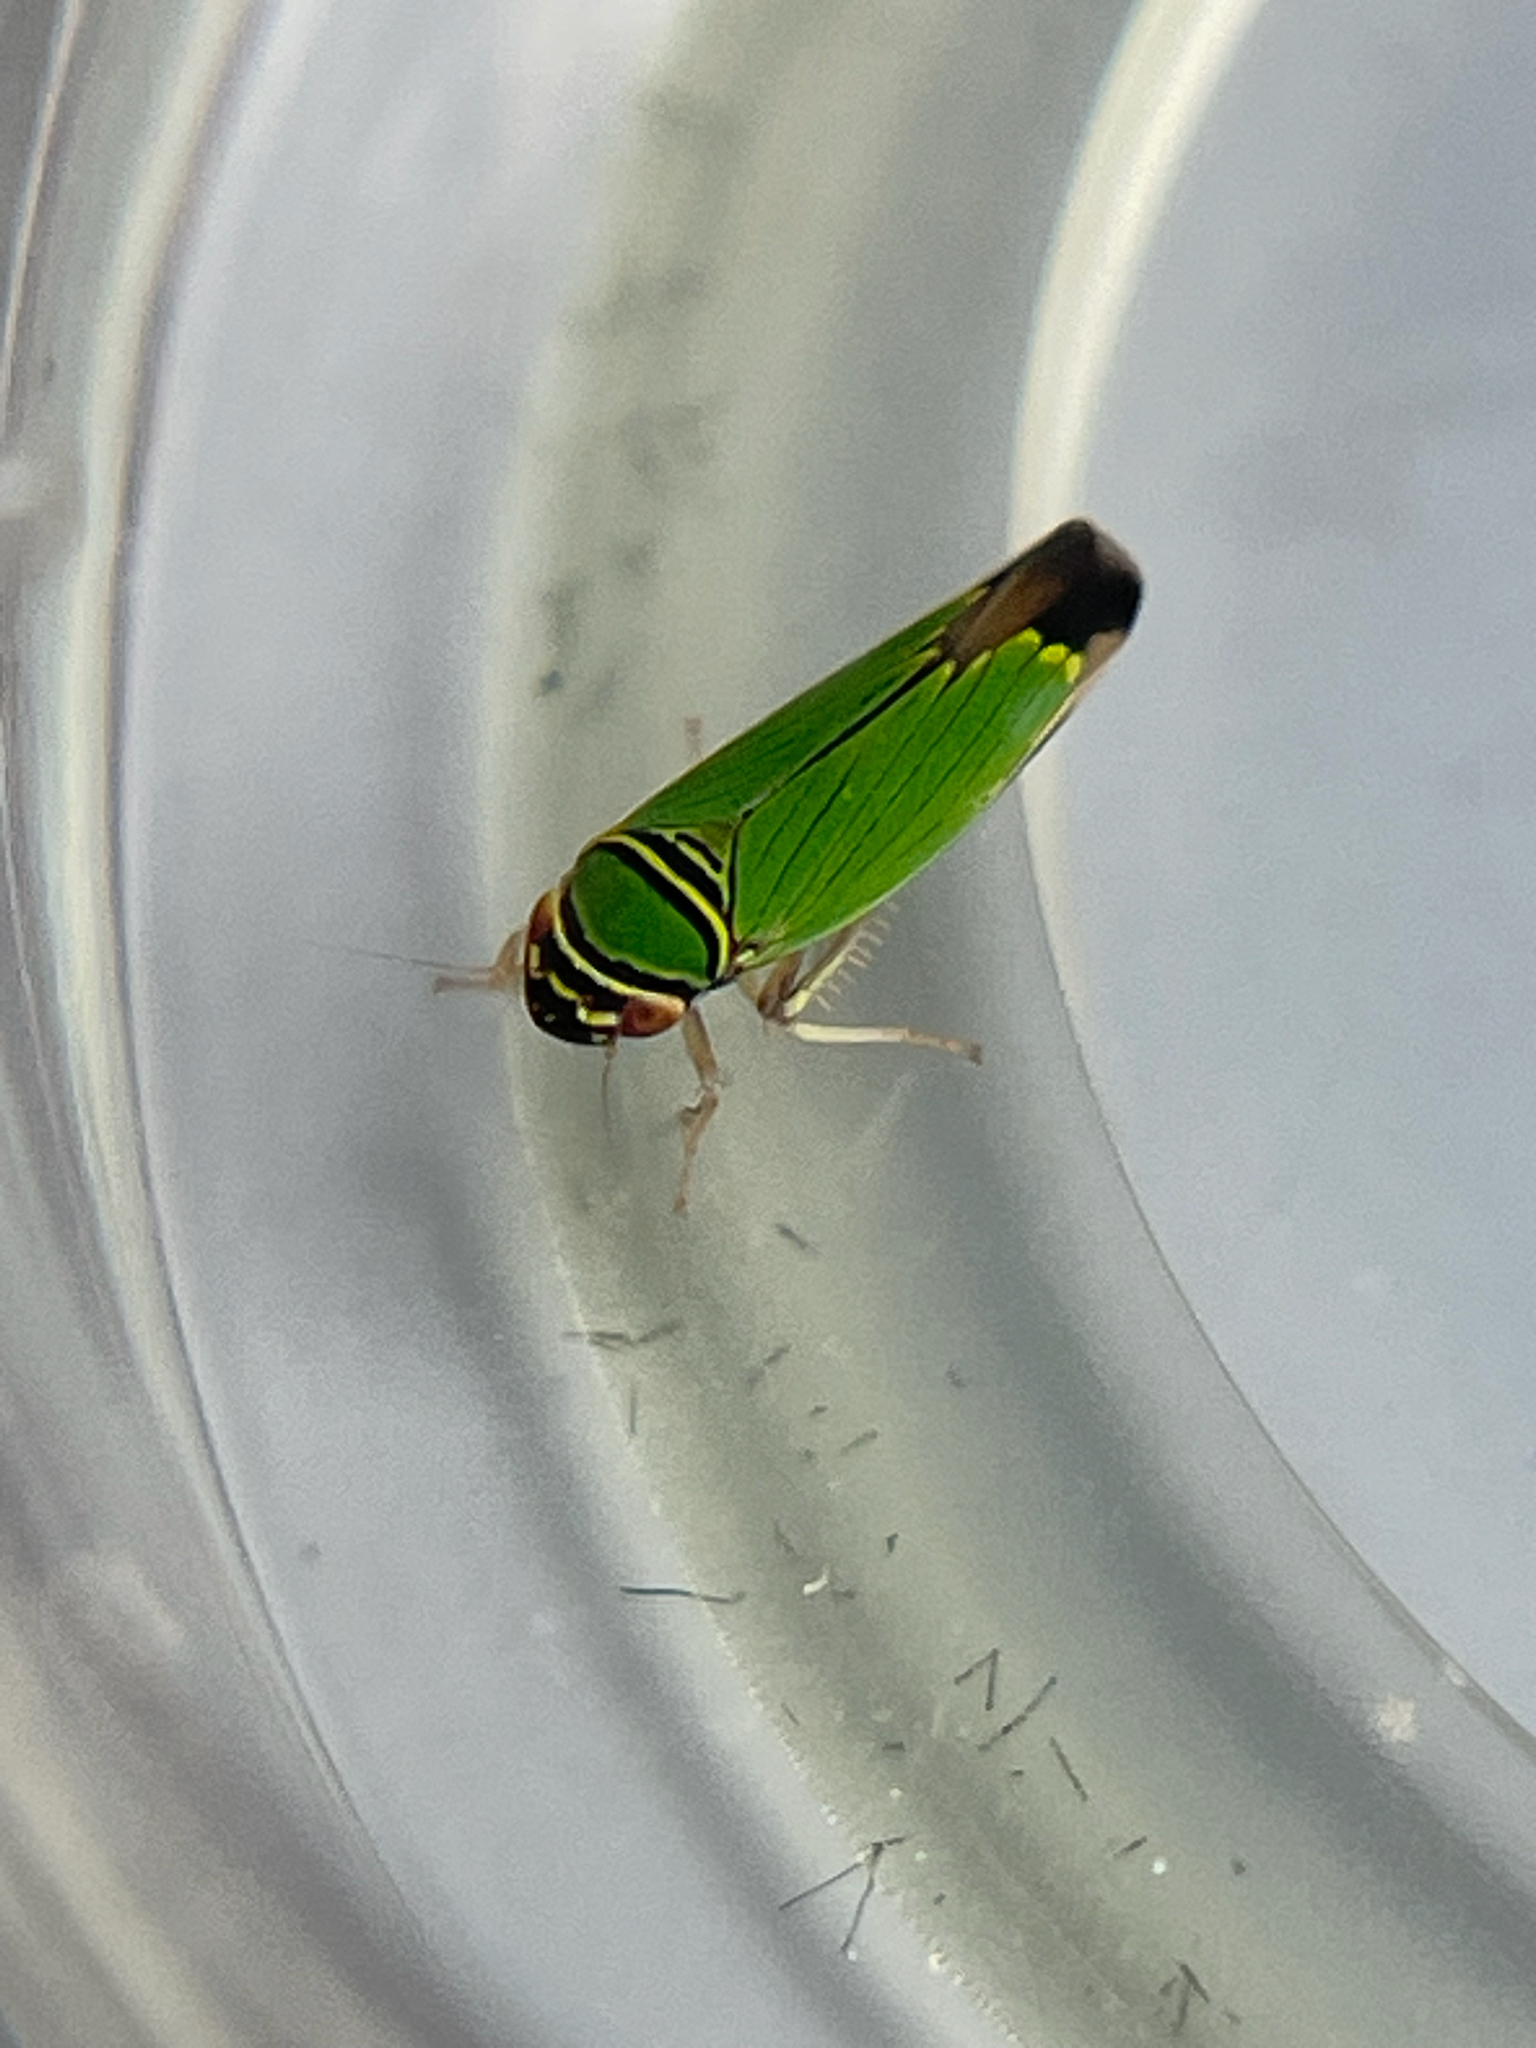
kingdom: Animalia
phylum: Arthropoda
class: Insecta
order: Hemiptera
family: Cicadellidae
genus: Tylozygus
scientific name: Tylozygus geometricus
